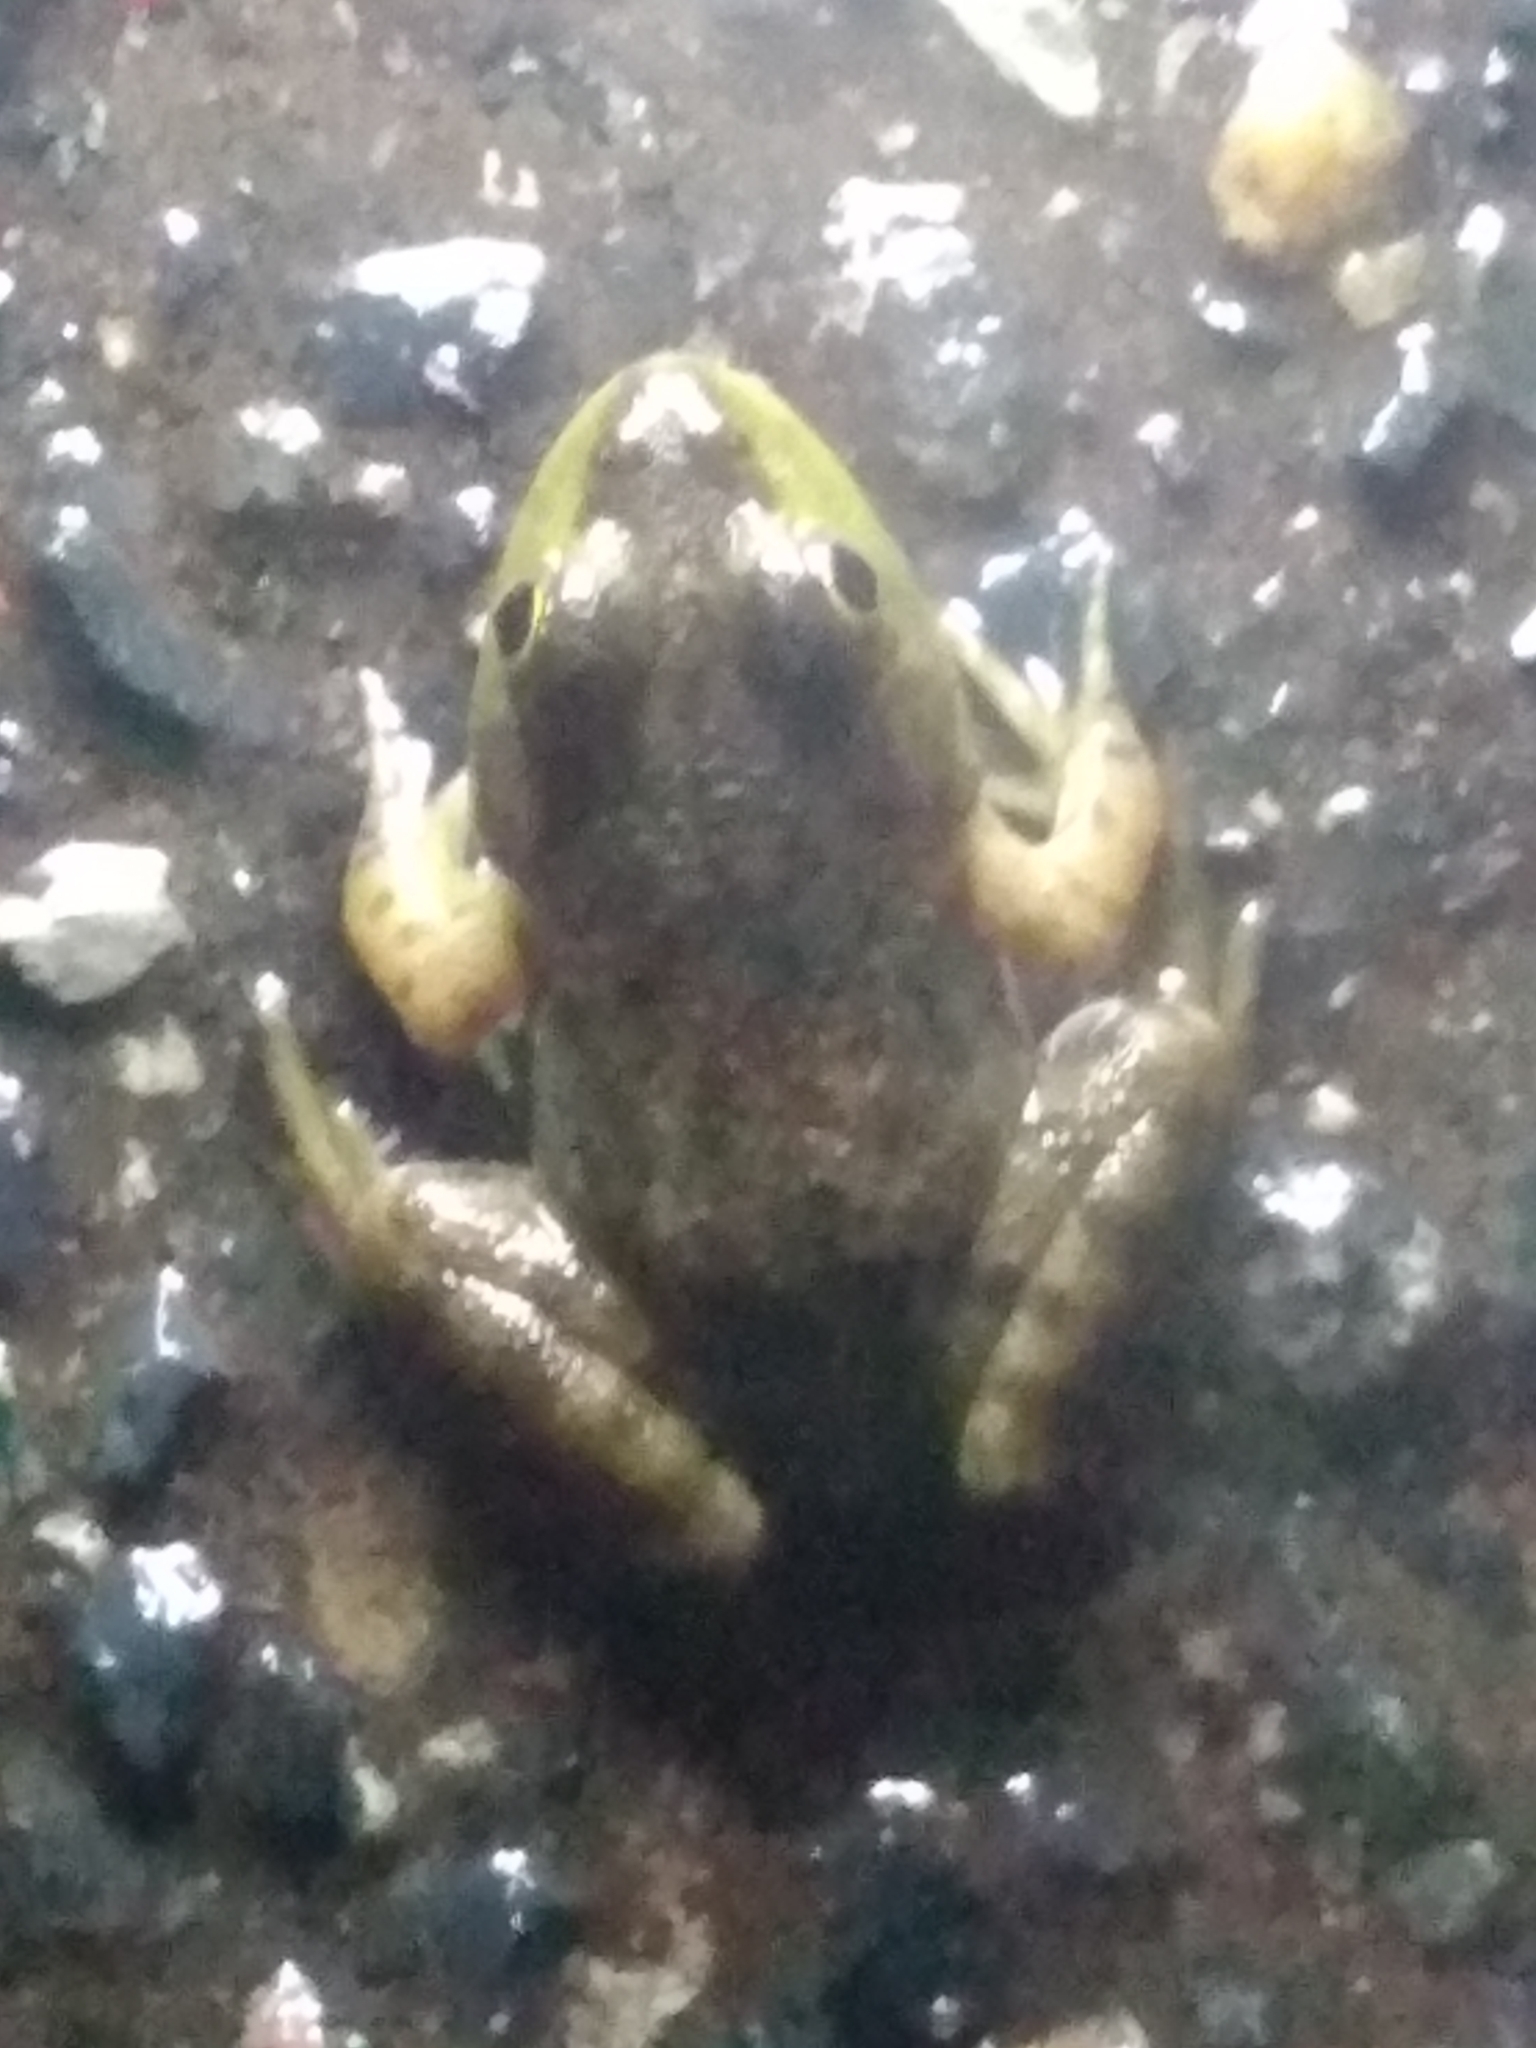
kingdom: Animalia
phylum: Chordata
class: Amphibia
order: Anura
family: Ranidae
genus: Lithobates
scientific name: Lithobates catesbeianus
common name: American bullfrog
